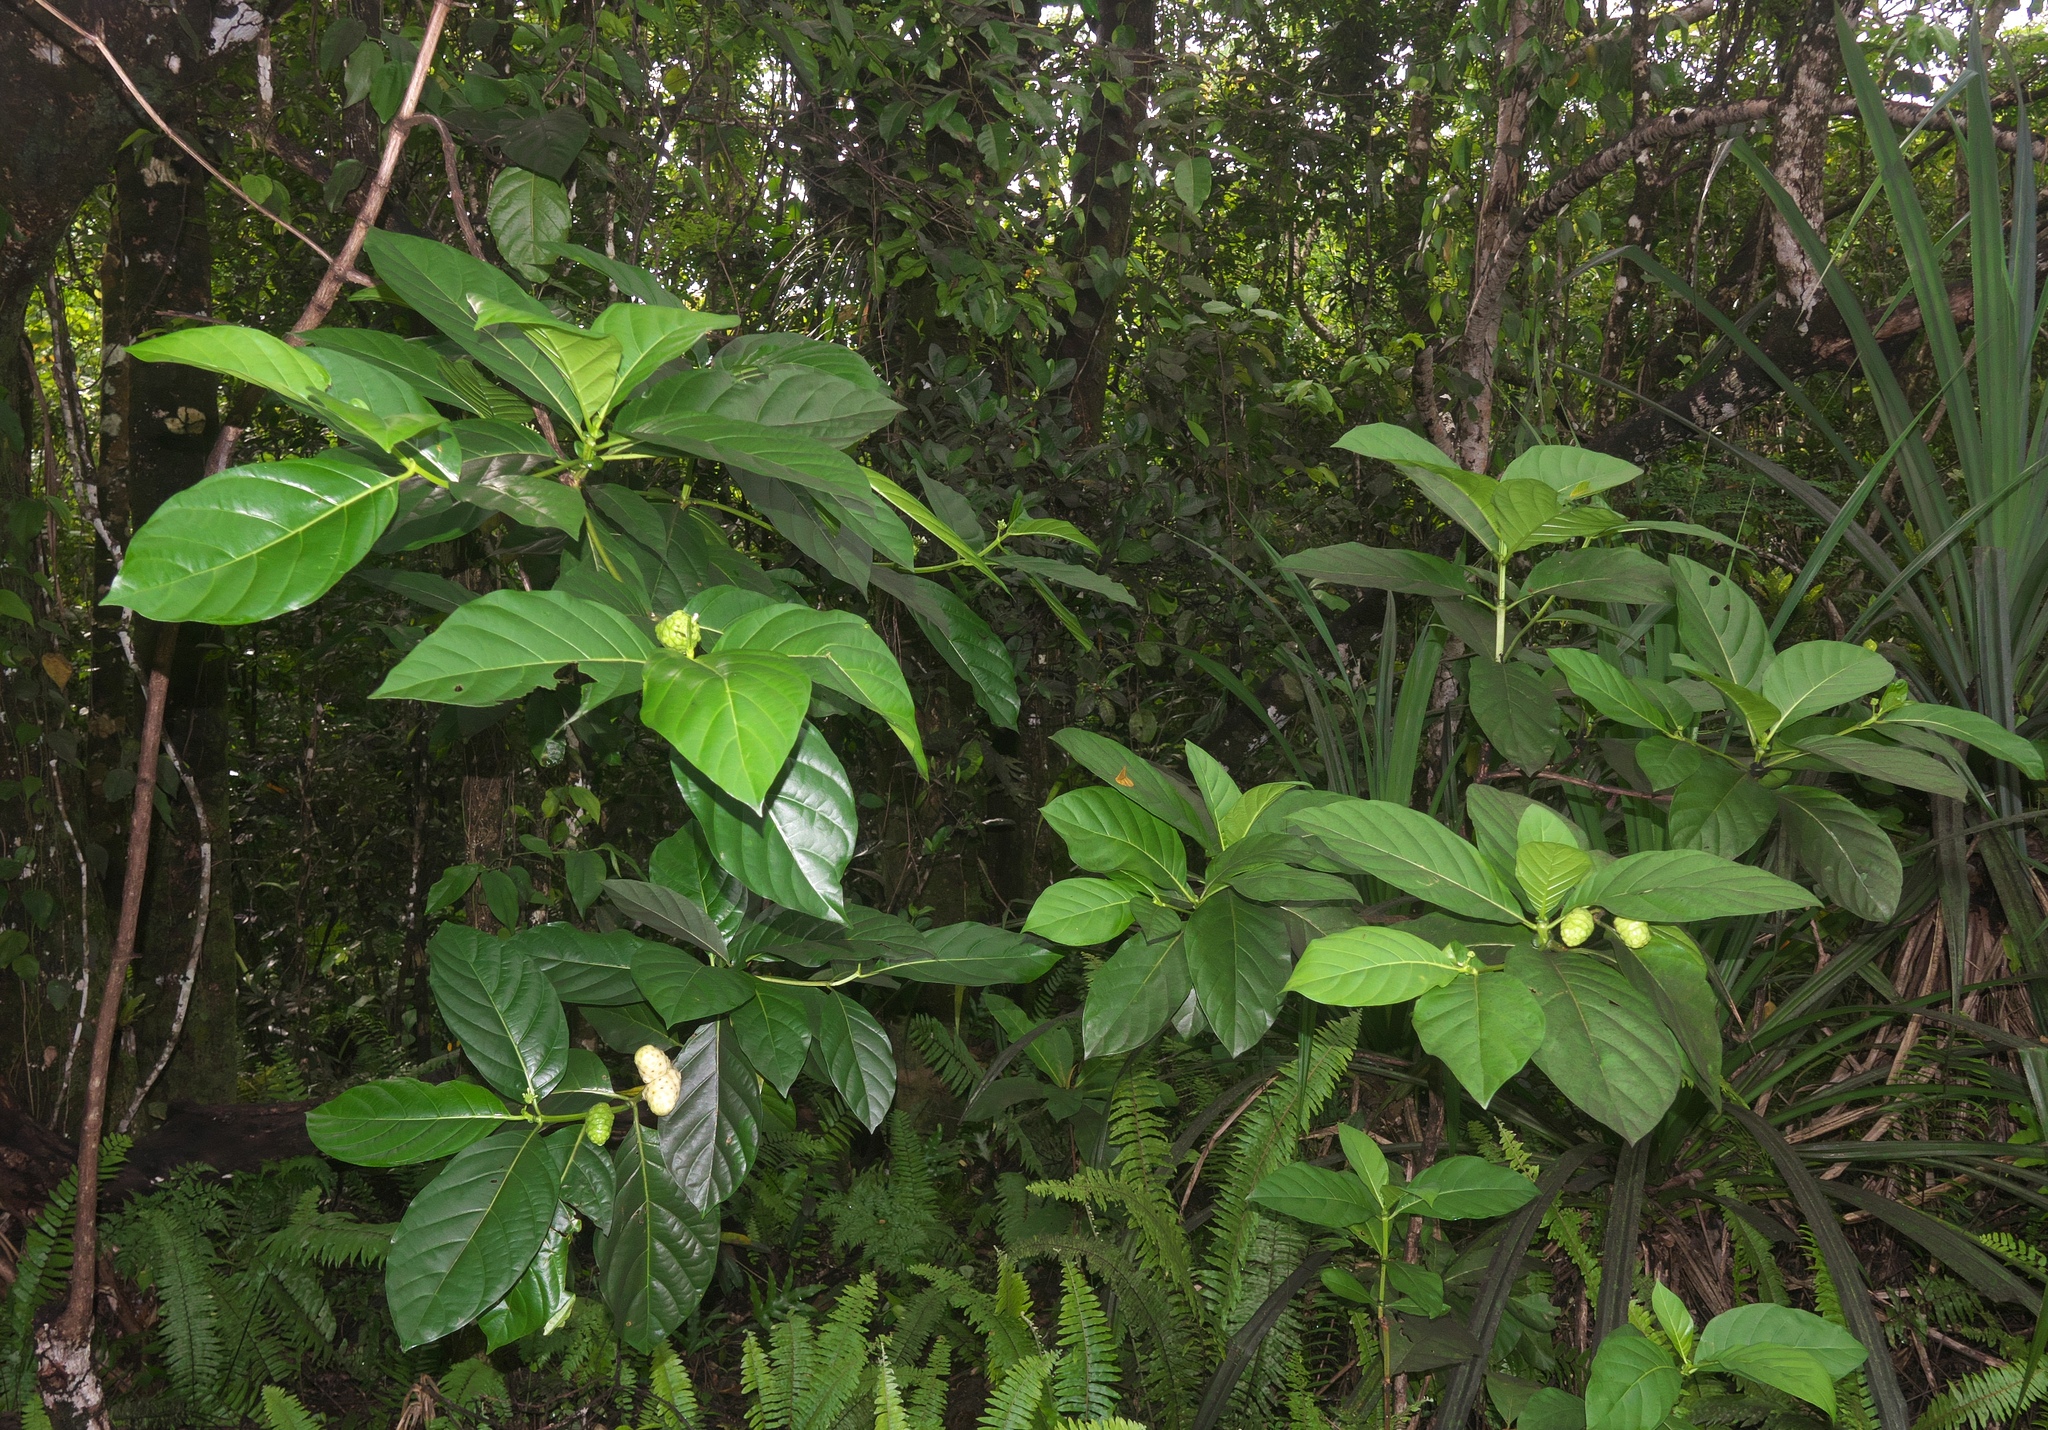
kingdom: Plantae
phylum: Tracheophyta
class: Magnoliopsida
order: Gentianales
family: Rubiaceae
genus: Morinda
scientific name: Morinda citrifolia
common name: Indian-mulberry
